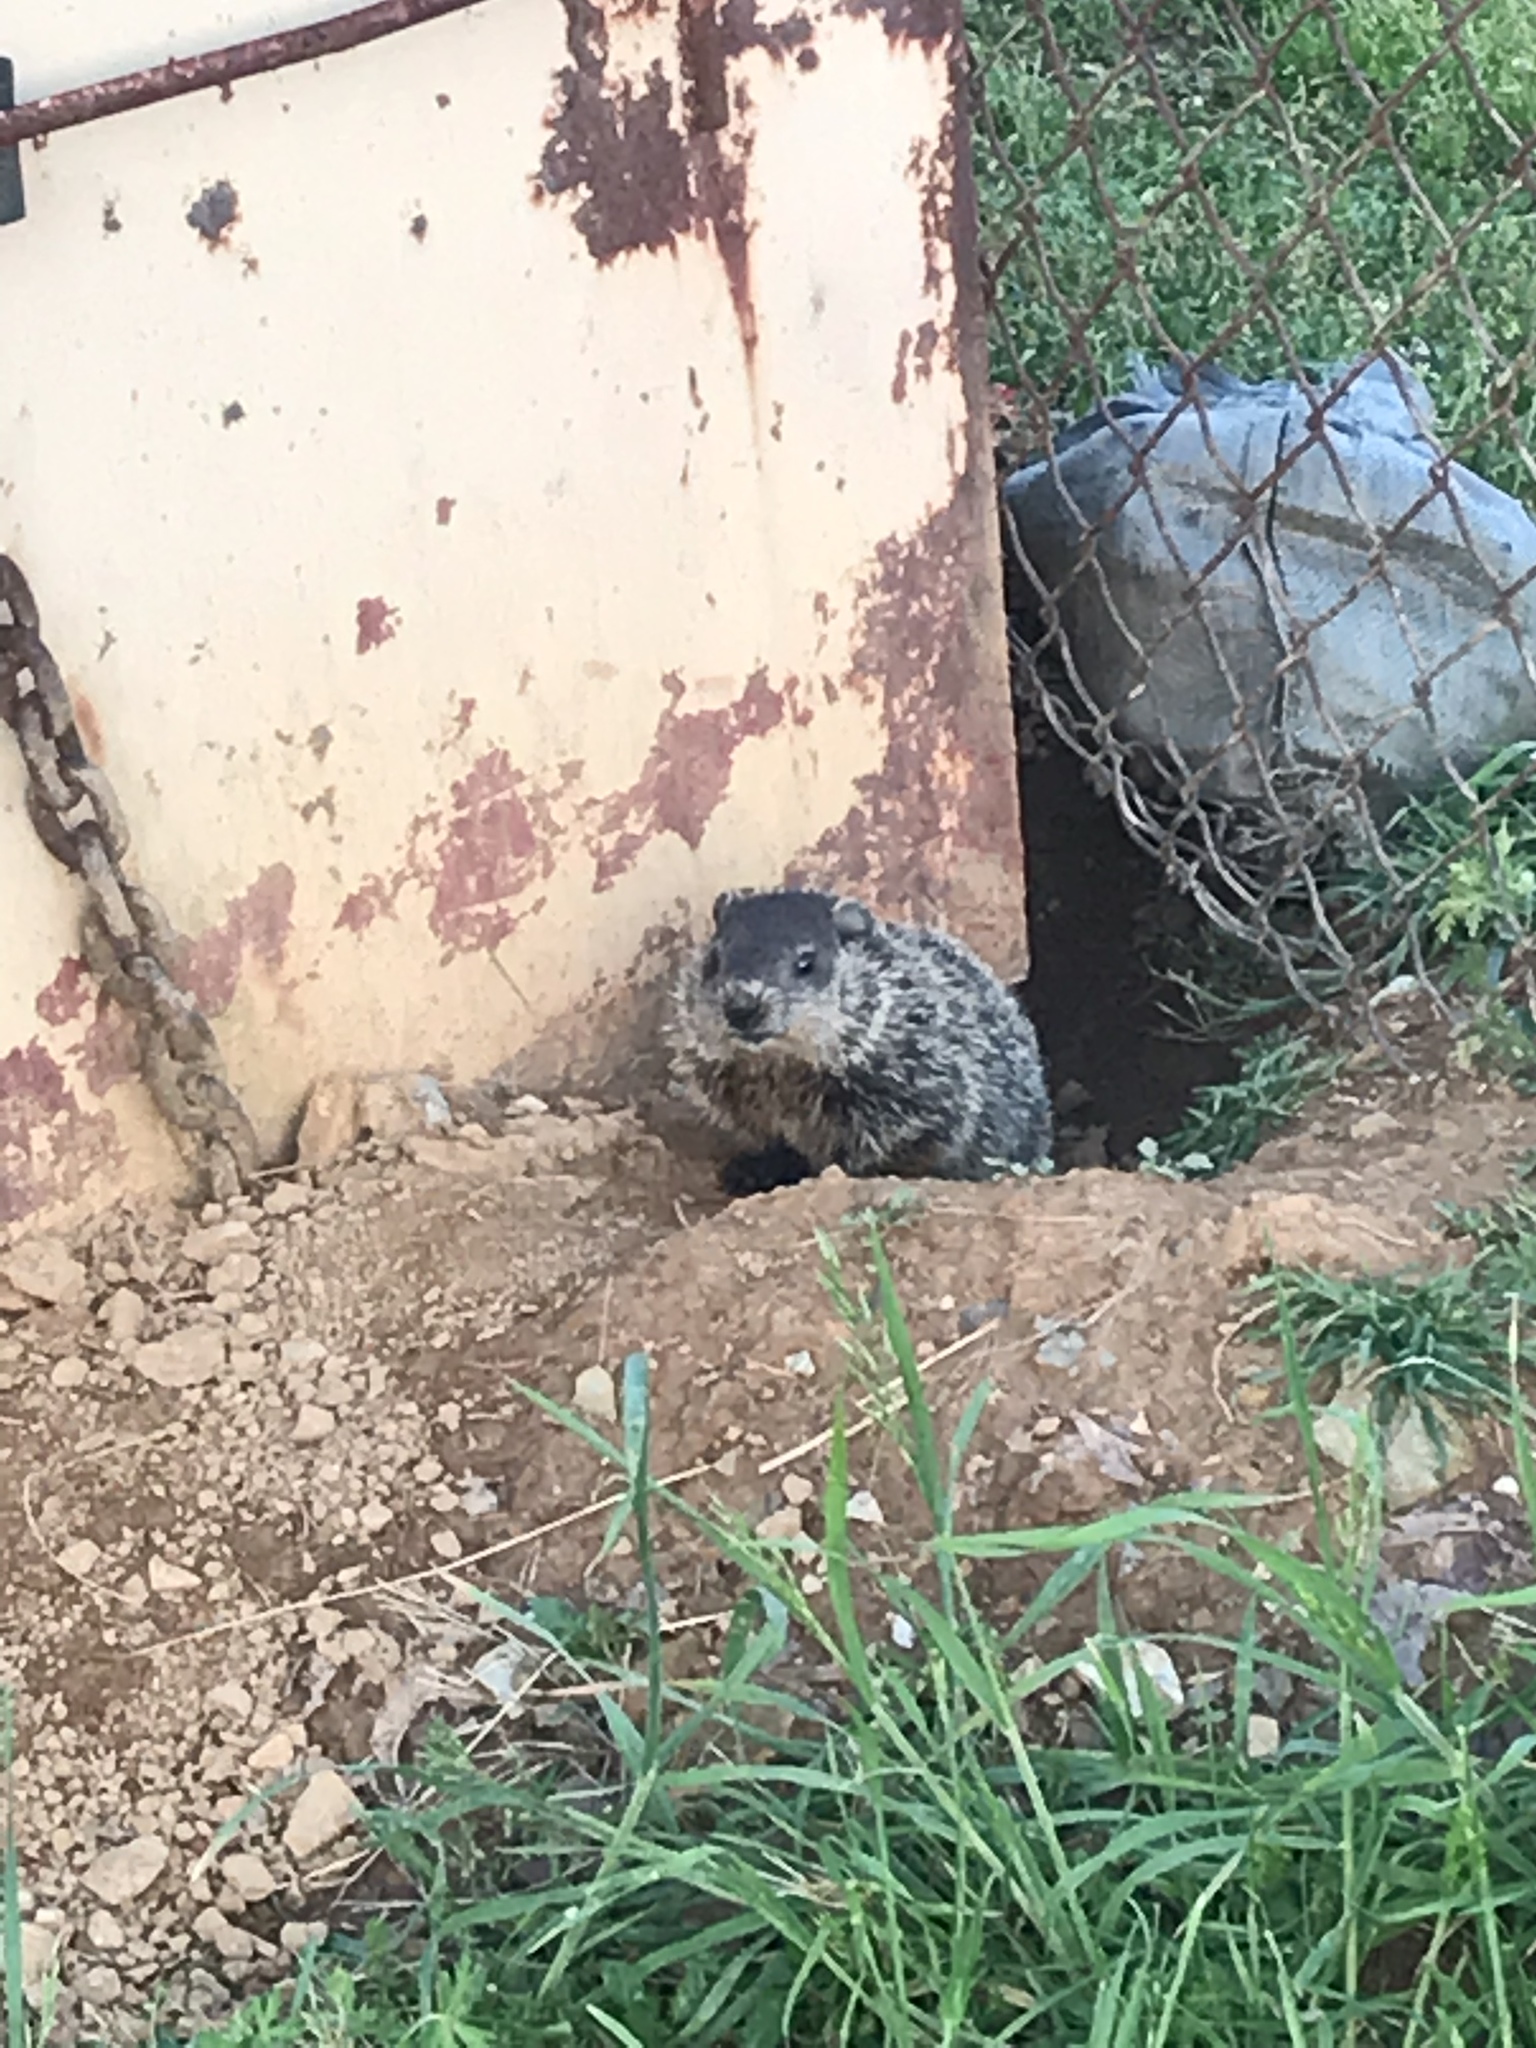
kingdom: Animalia
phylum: Chordata
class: Mammalia
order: Rodentia
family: Sciuridae
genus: Marmota
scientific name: Marmota monax
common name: Groundhog
